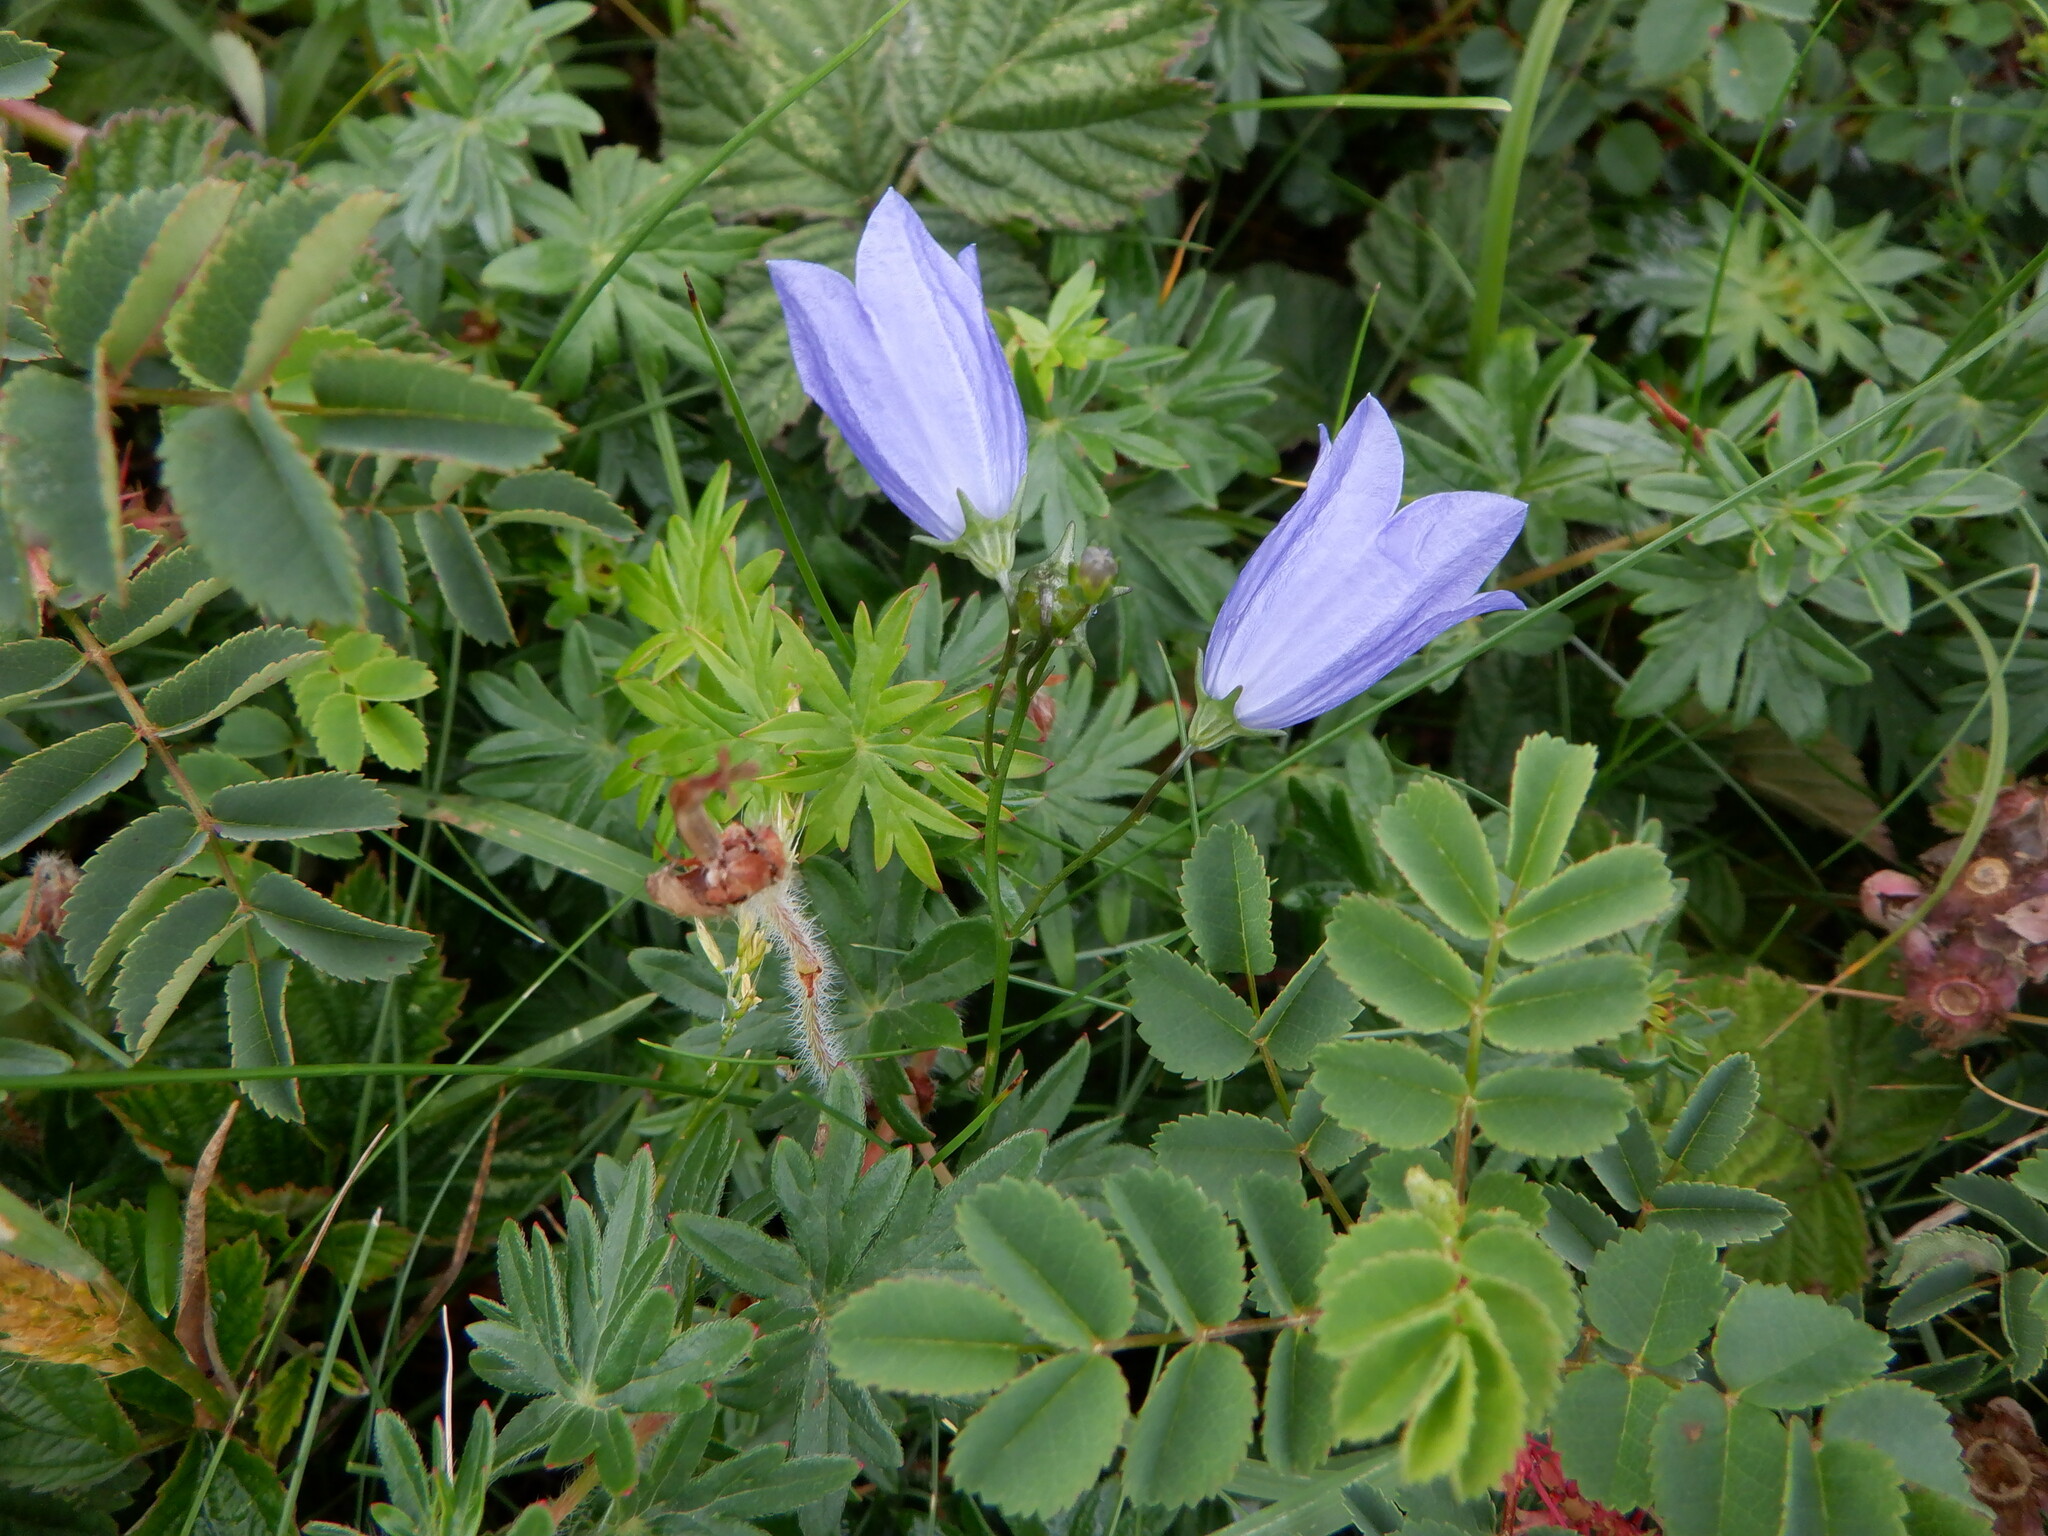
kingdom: Plantae
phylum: Tracheophyta
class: Magnoliopsida
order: Asterales
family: Campanulaceae
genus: Campanula
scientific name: Campanula rotundifolia
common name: Harebell
